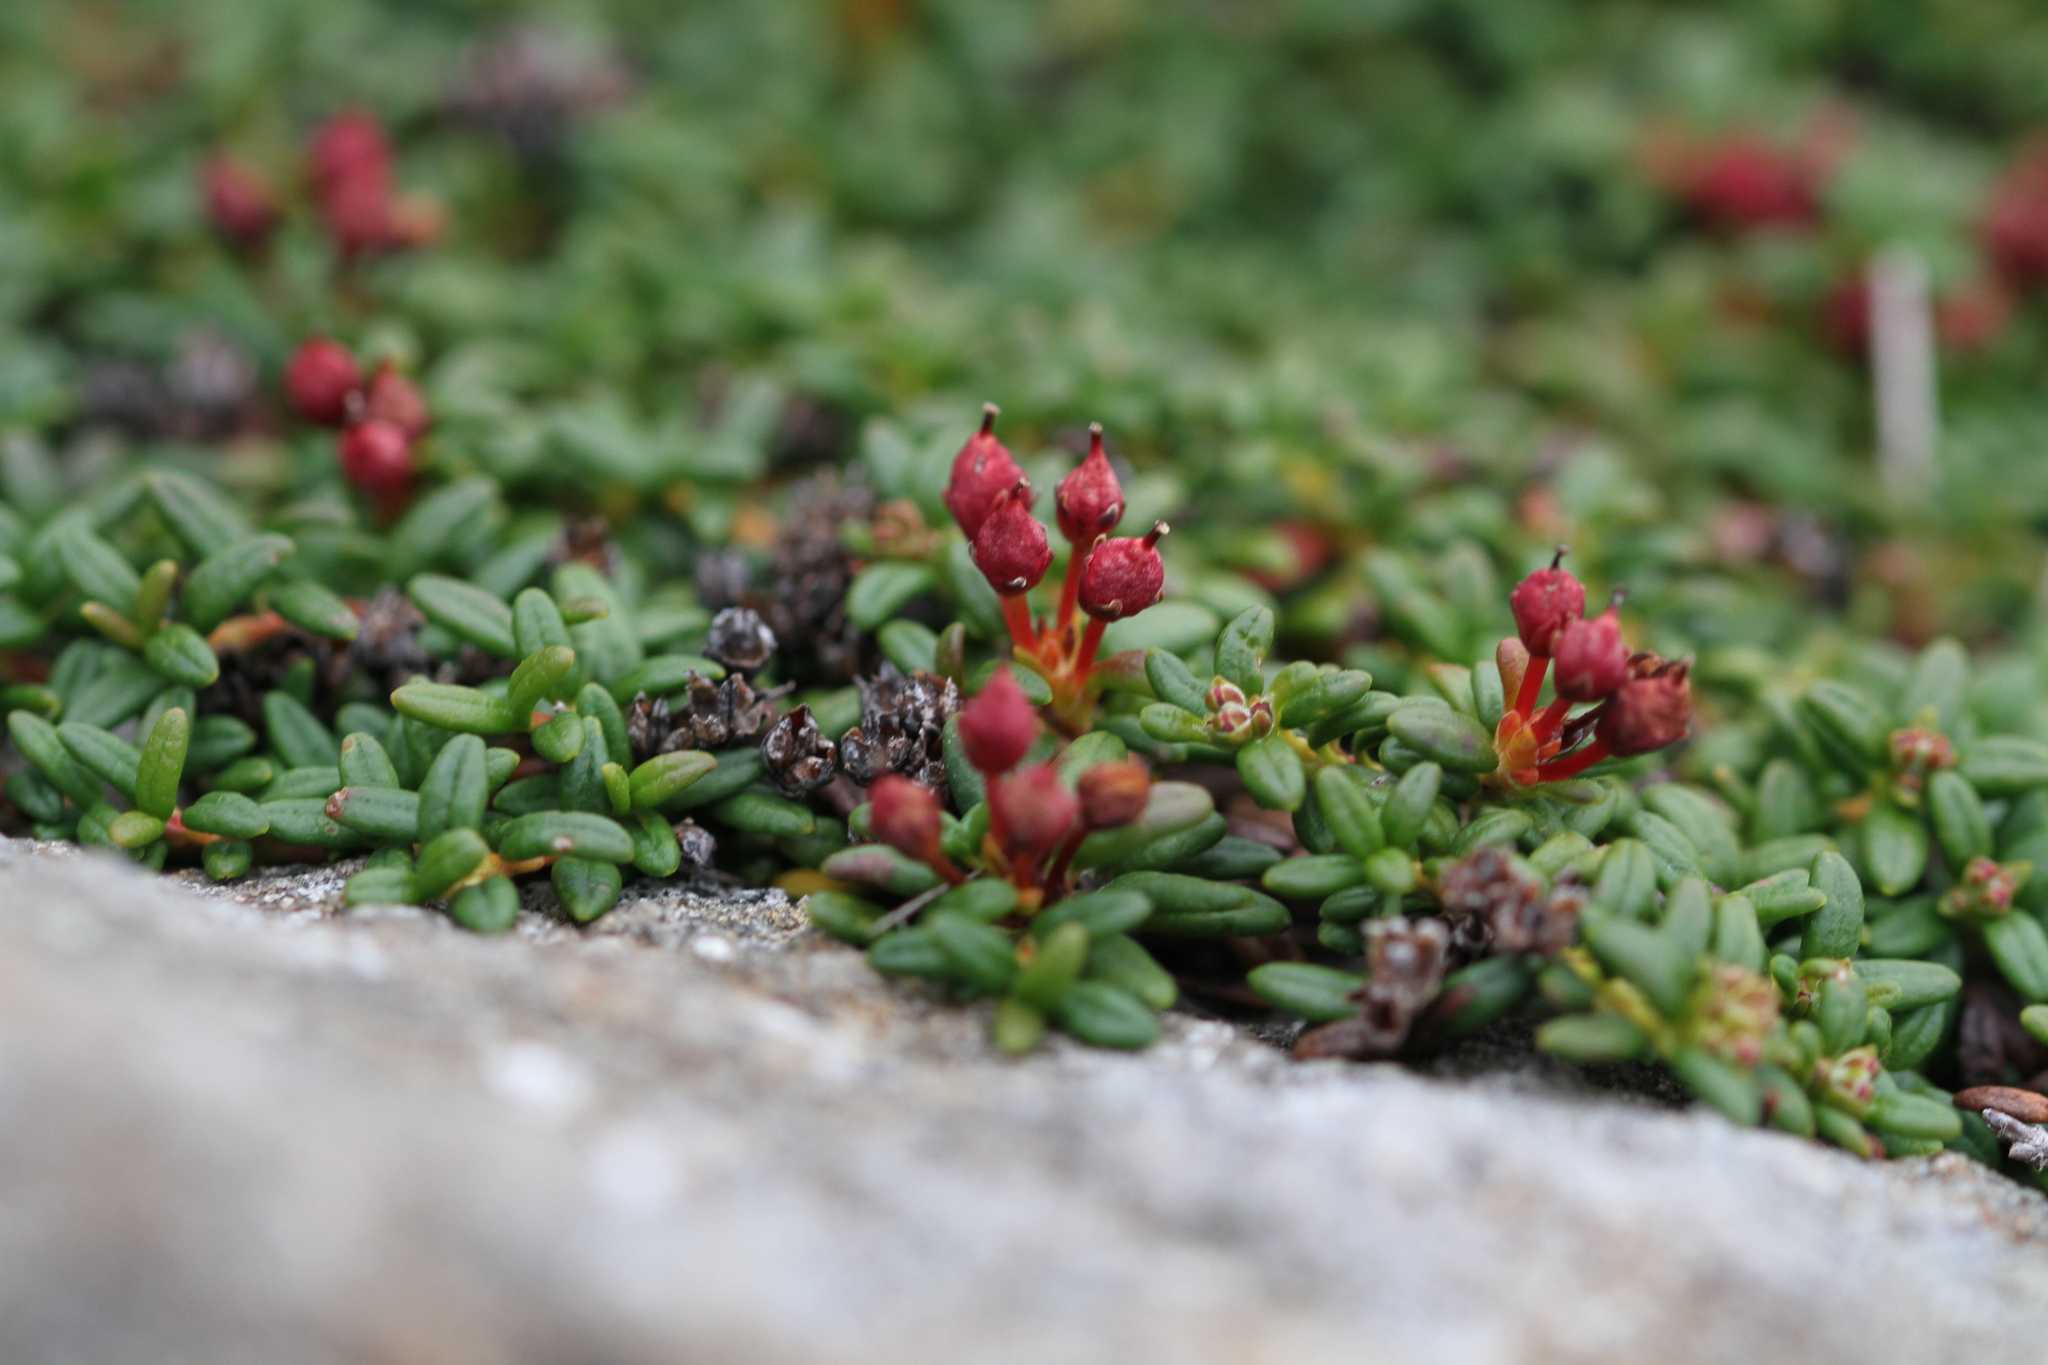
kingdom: Plantae
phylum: Tracheophyta
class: Magnoliopsida
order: Ericales
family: Ericaceae
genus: Kalmia
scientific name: Kalmia procumbens
